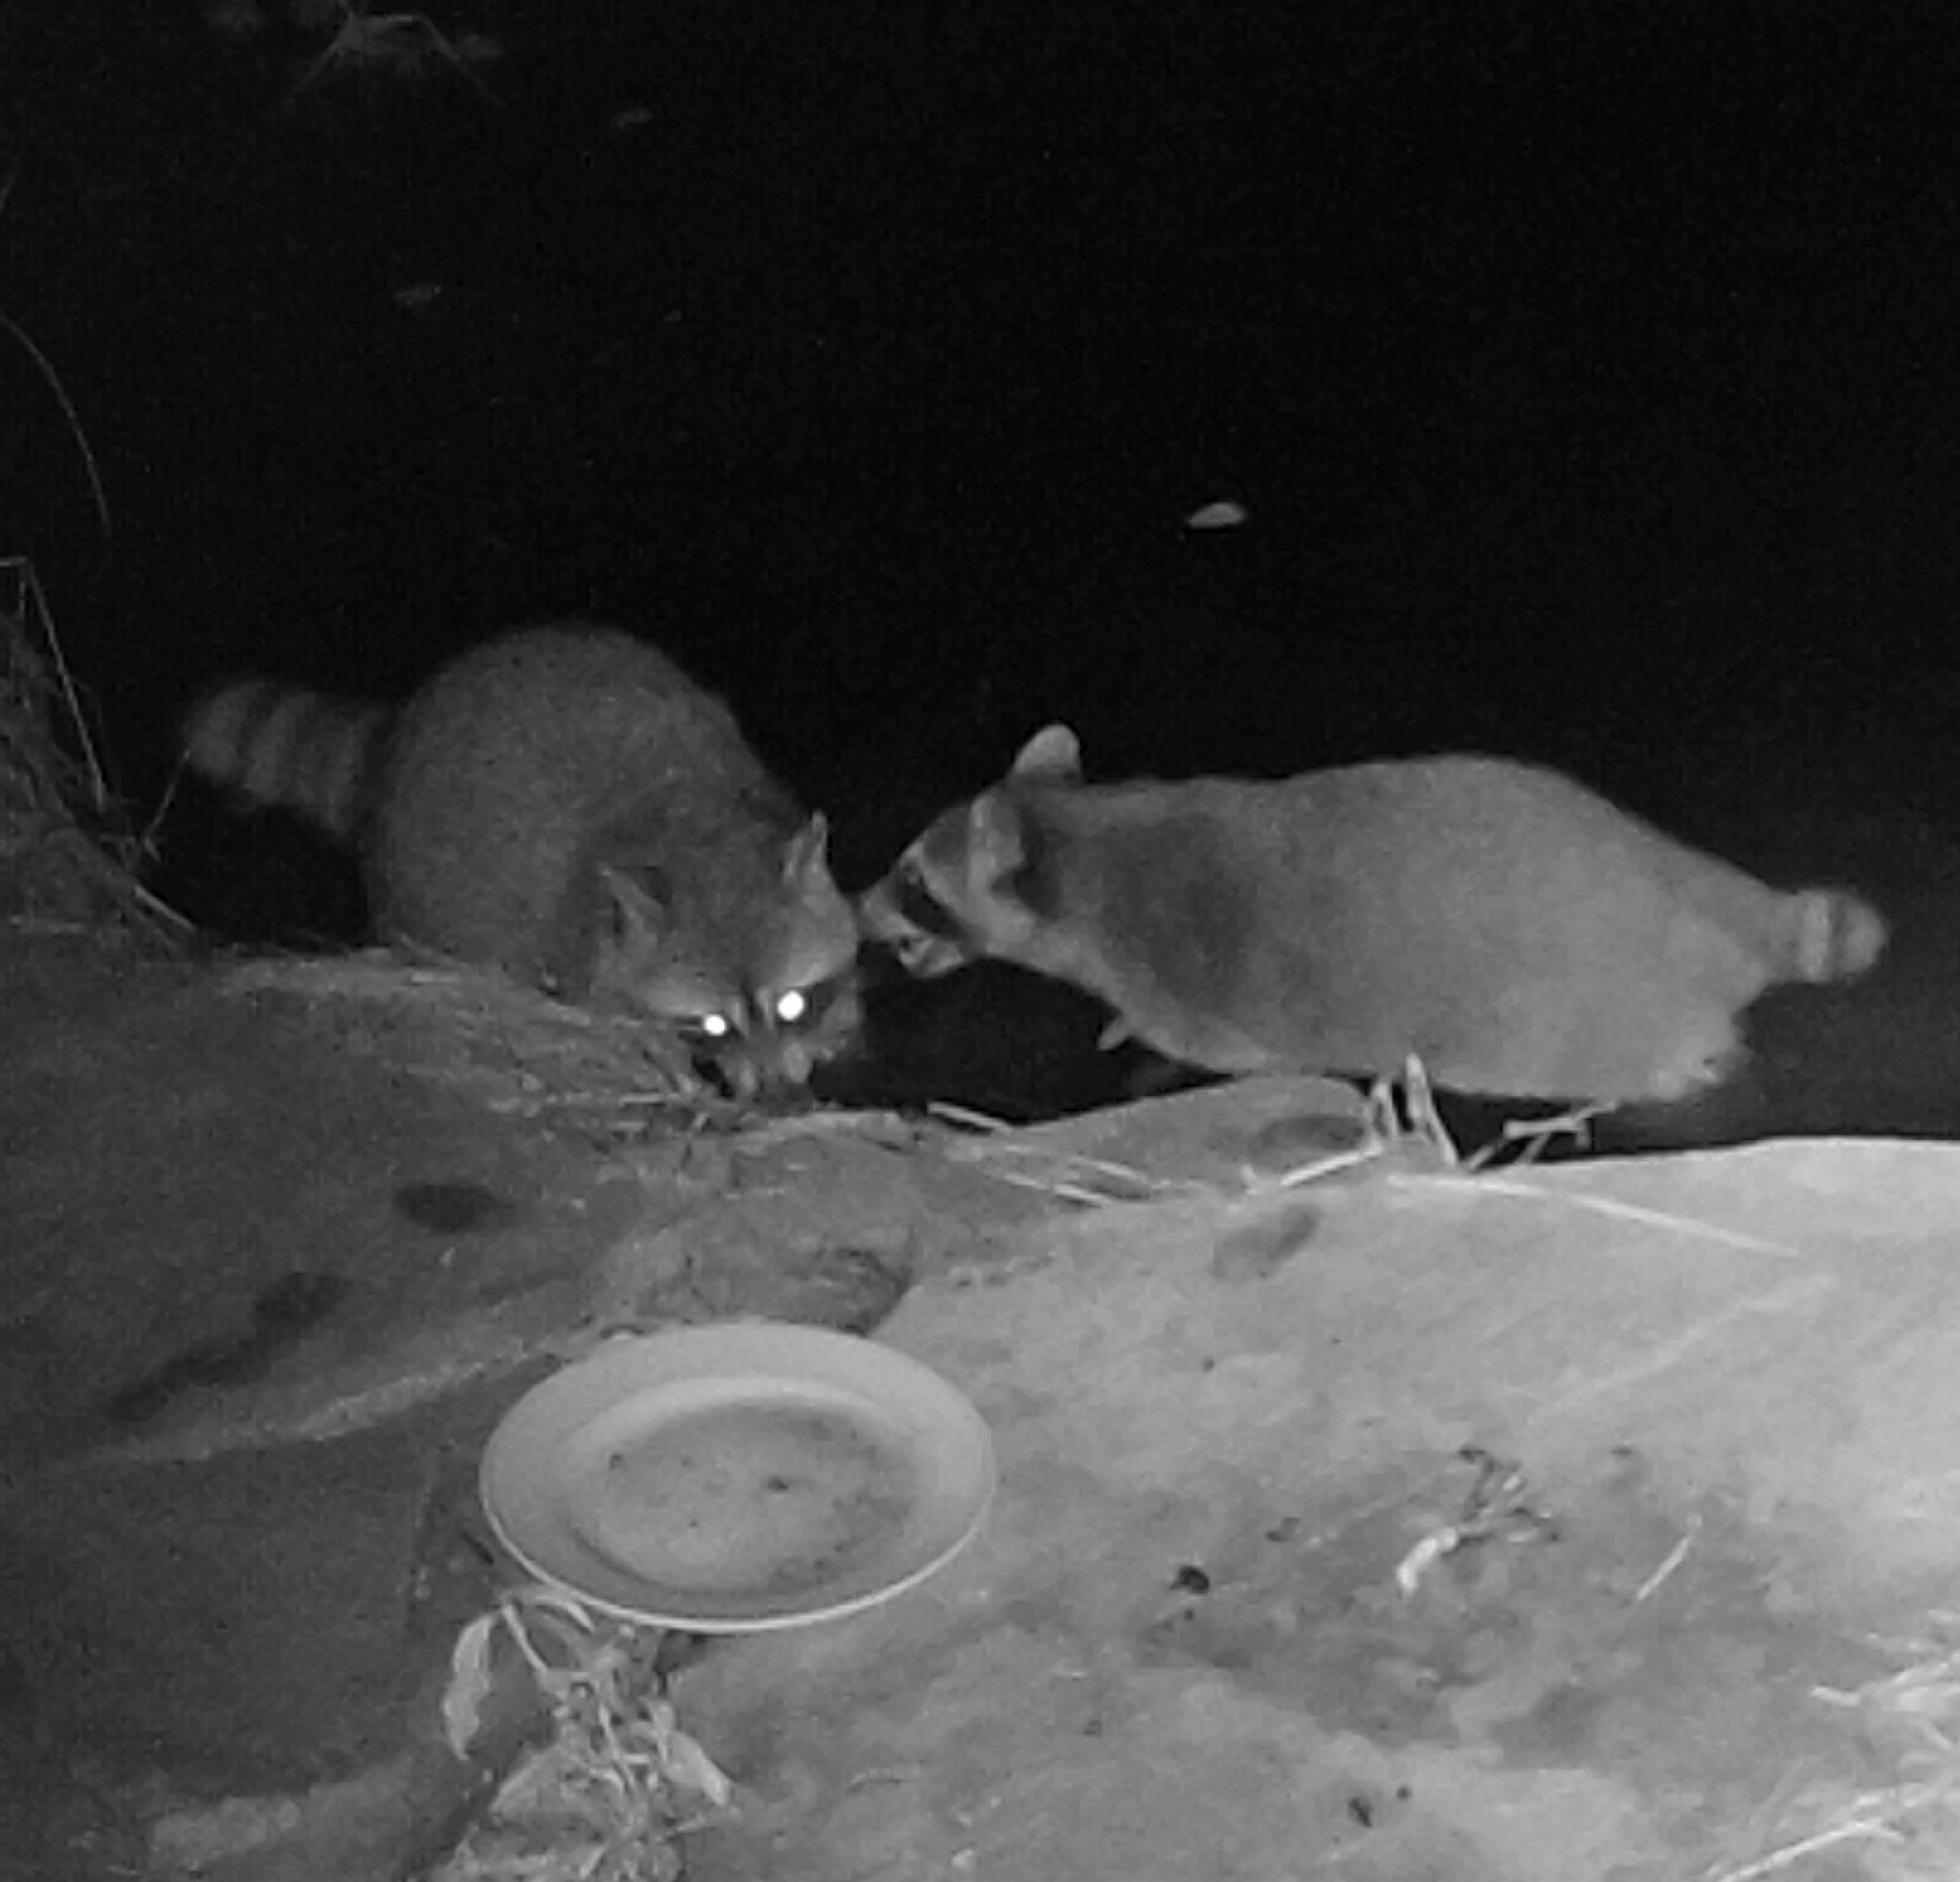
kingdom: Animalia
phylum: Chordata
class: Mammalia
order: Carnivora
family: Procyonidae
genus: Procyon
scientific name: Procyon lotor
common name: Raccoon
